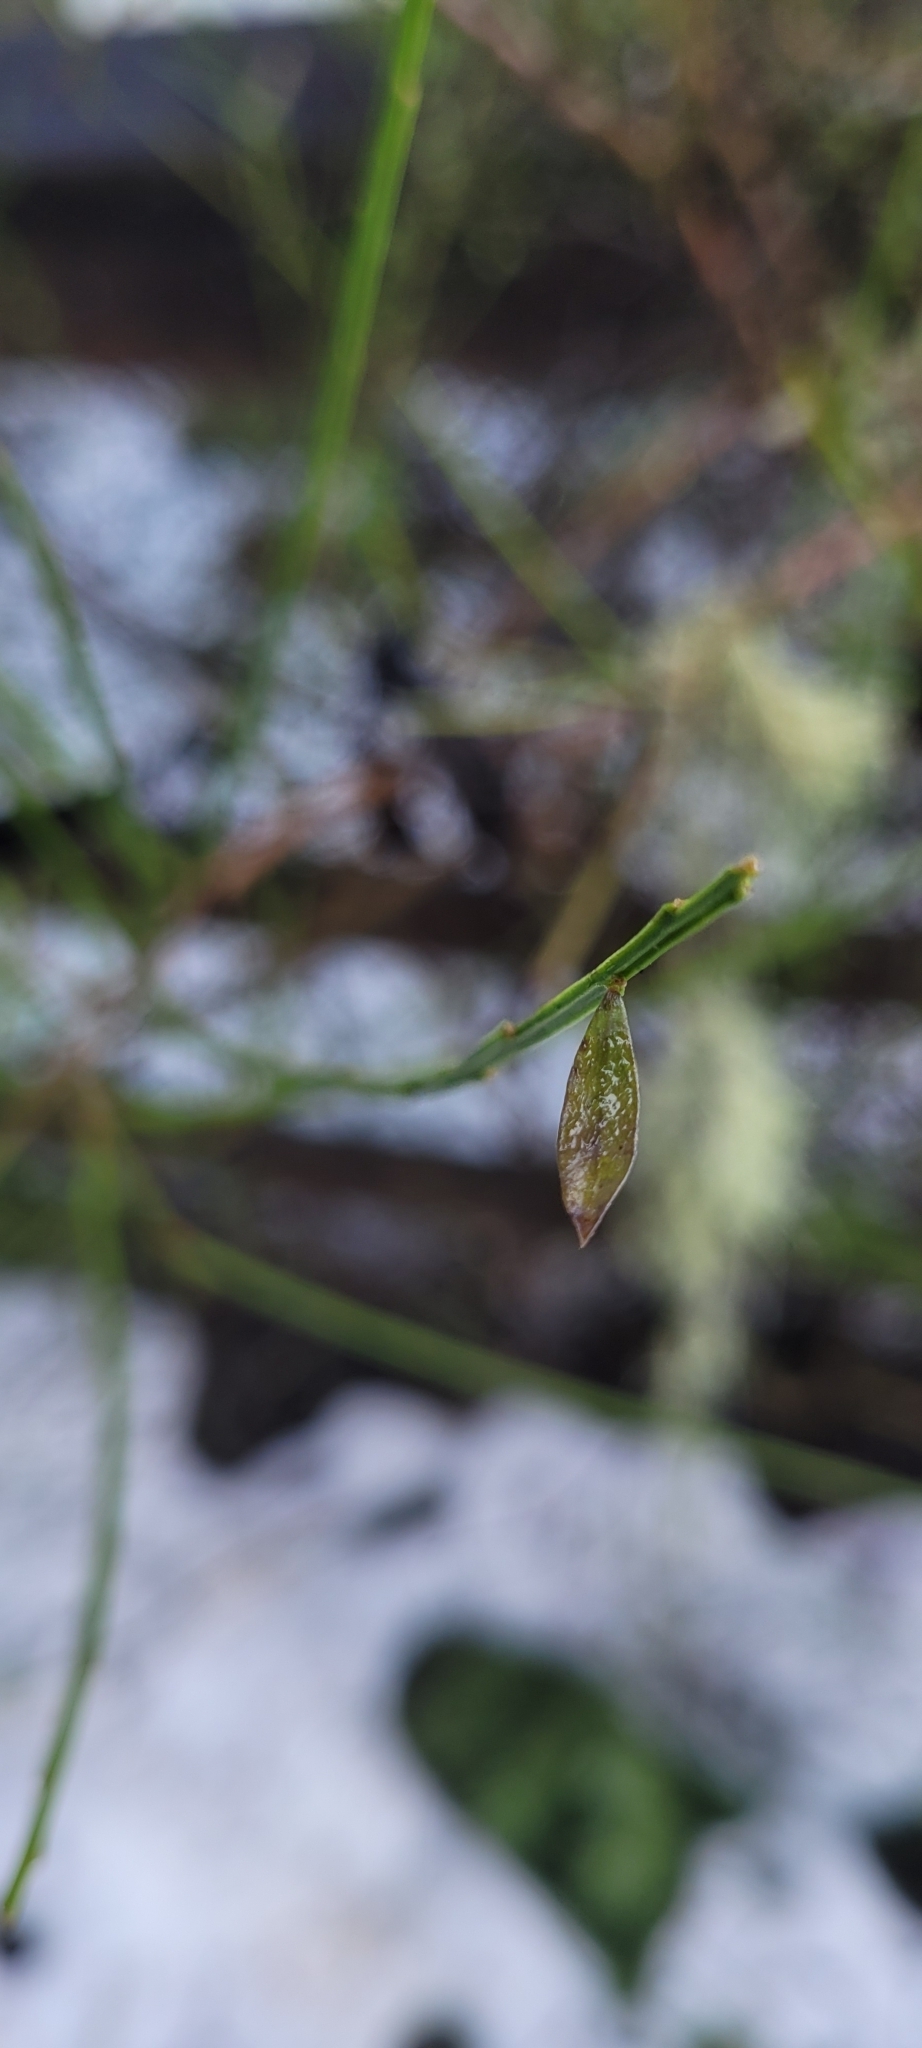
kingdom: Plantae
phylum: Tracheophyta
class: Magnoliopsida
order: Fabales
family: Fabaceae
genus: Cytisus
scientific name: Cytisus scoparius
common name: Scotch broom
